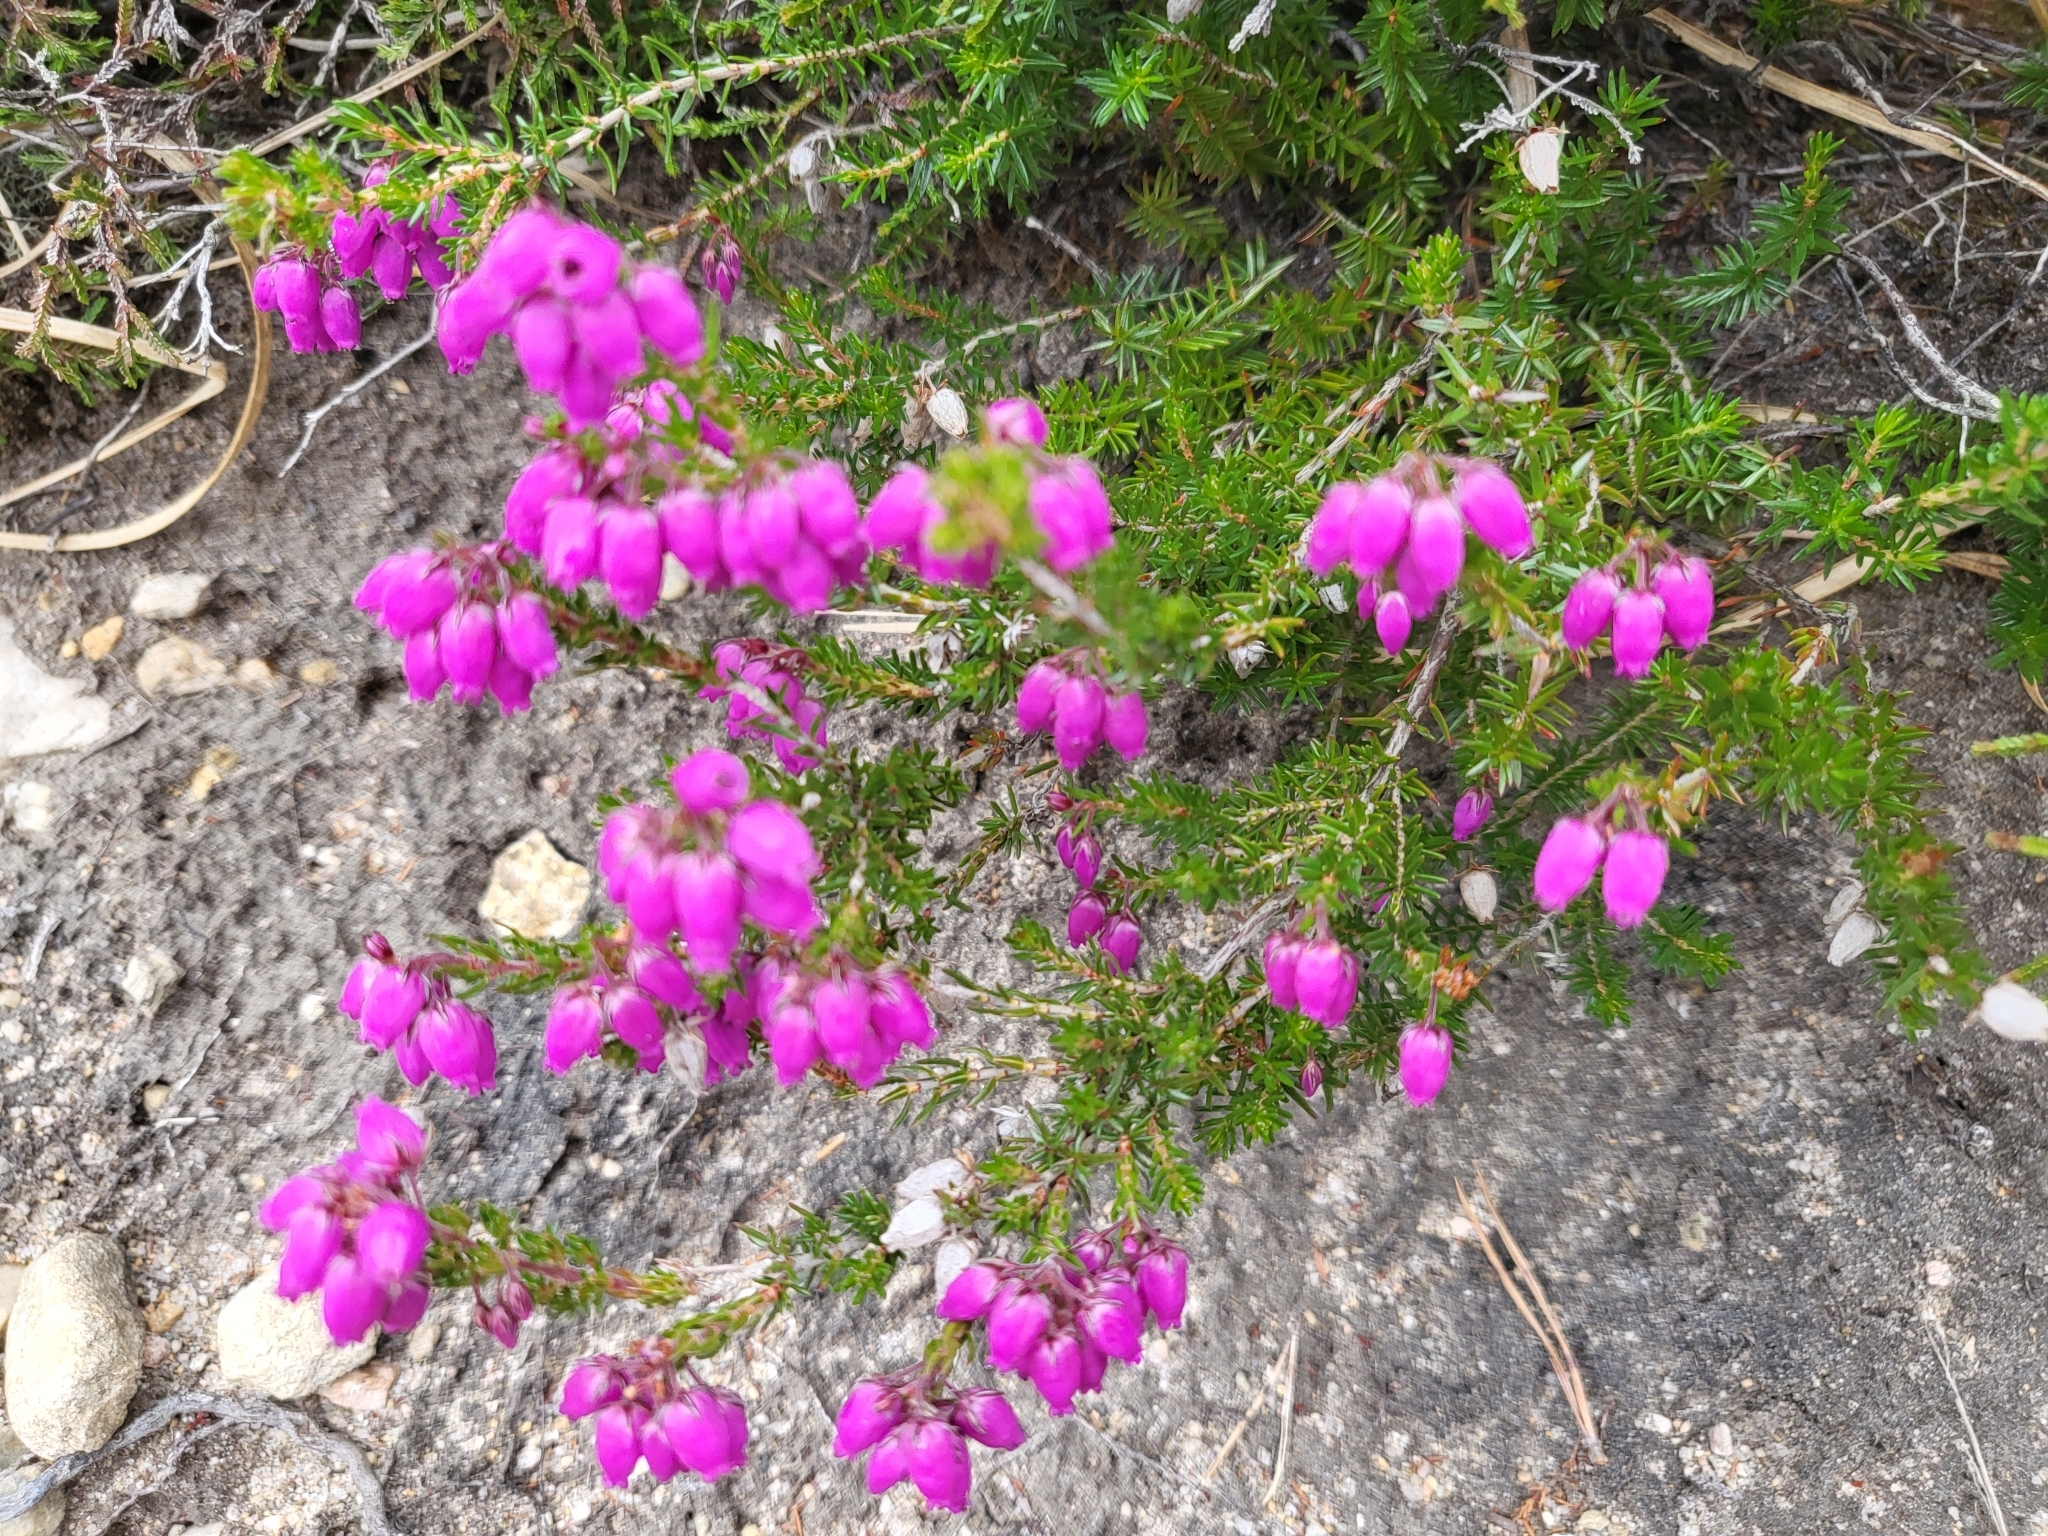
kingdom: Plantae
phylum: Tracheophyta
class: Magnoliopsida
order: Ericales
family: Ericaceae
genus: Erica
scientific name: Erica cinerea
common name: Bell heather
